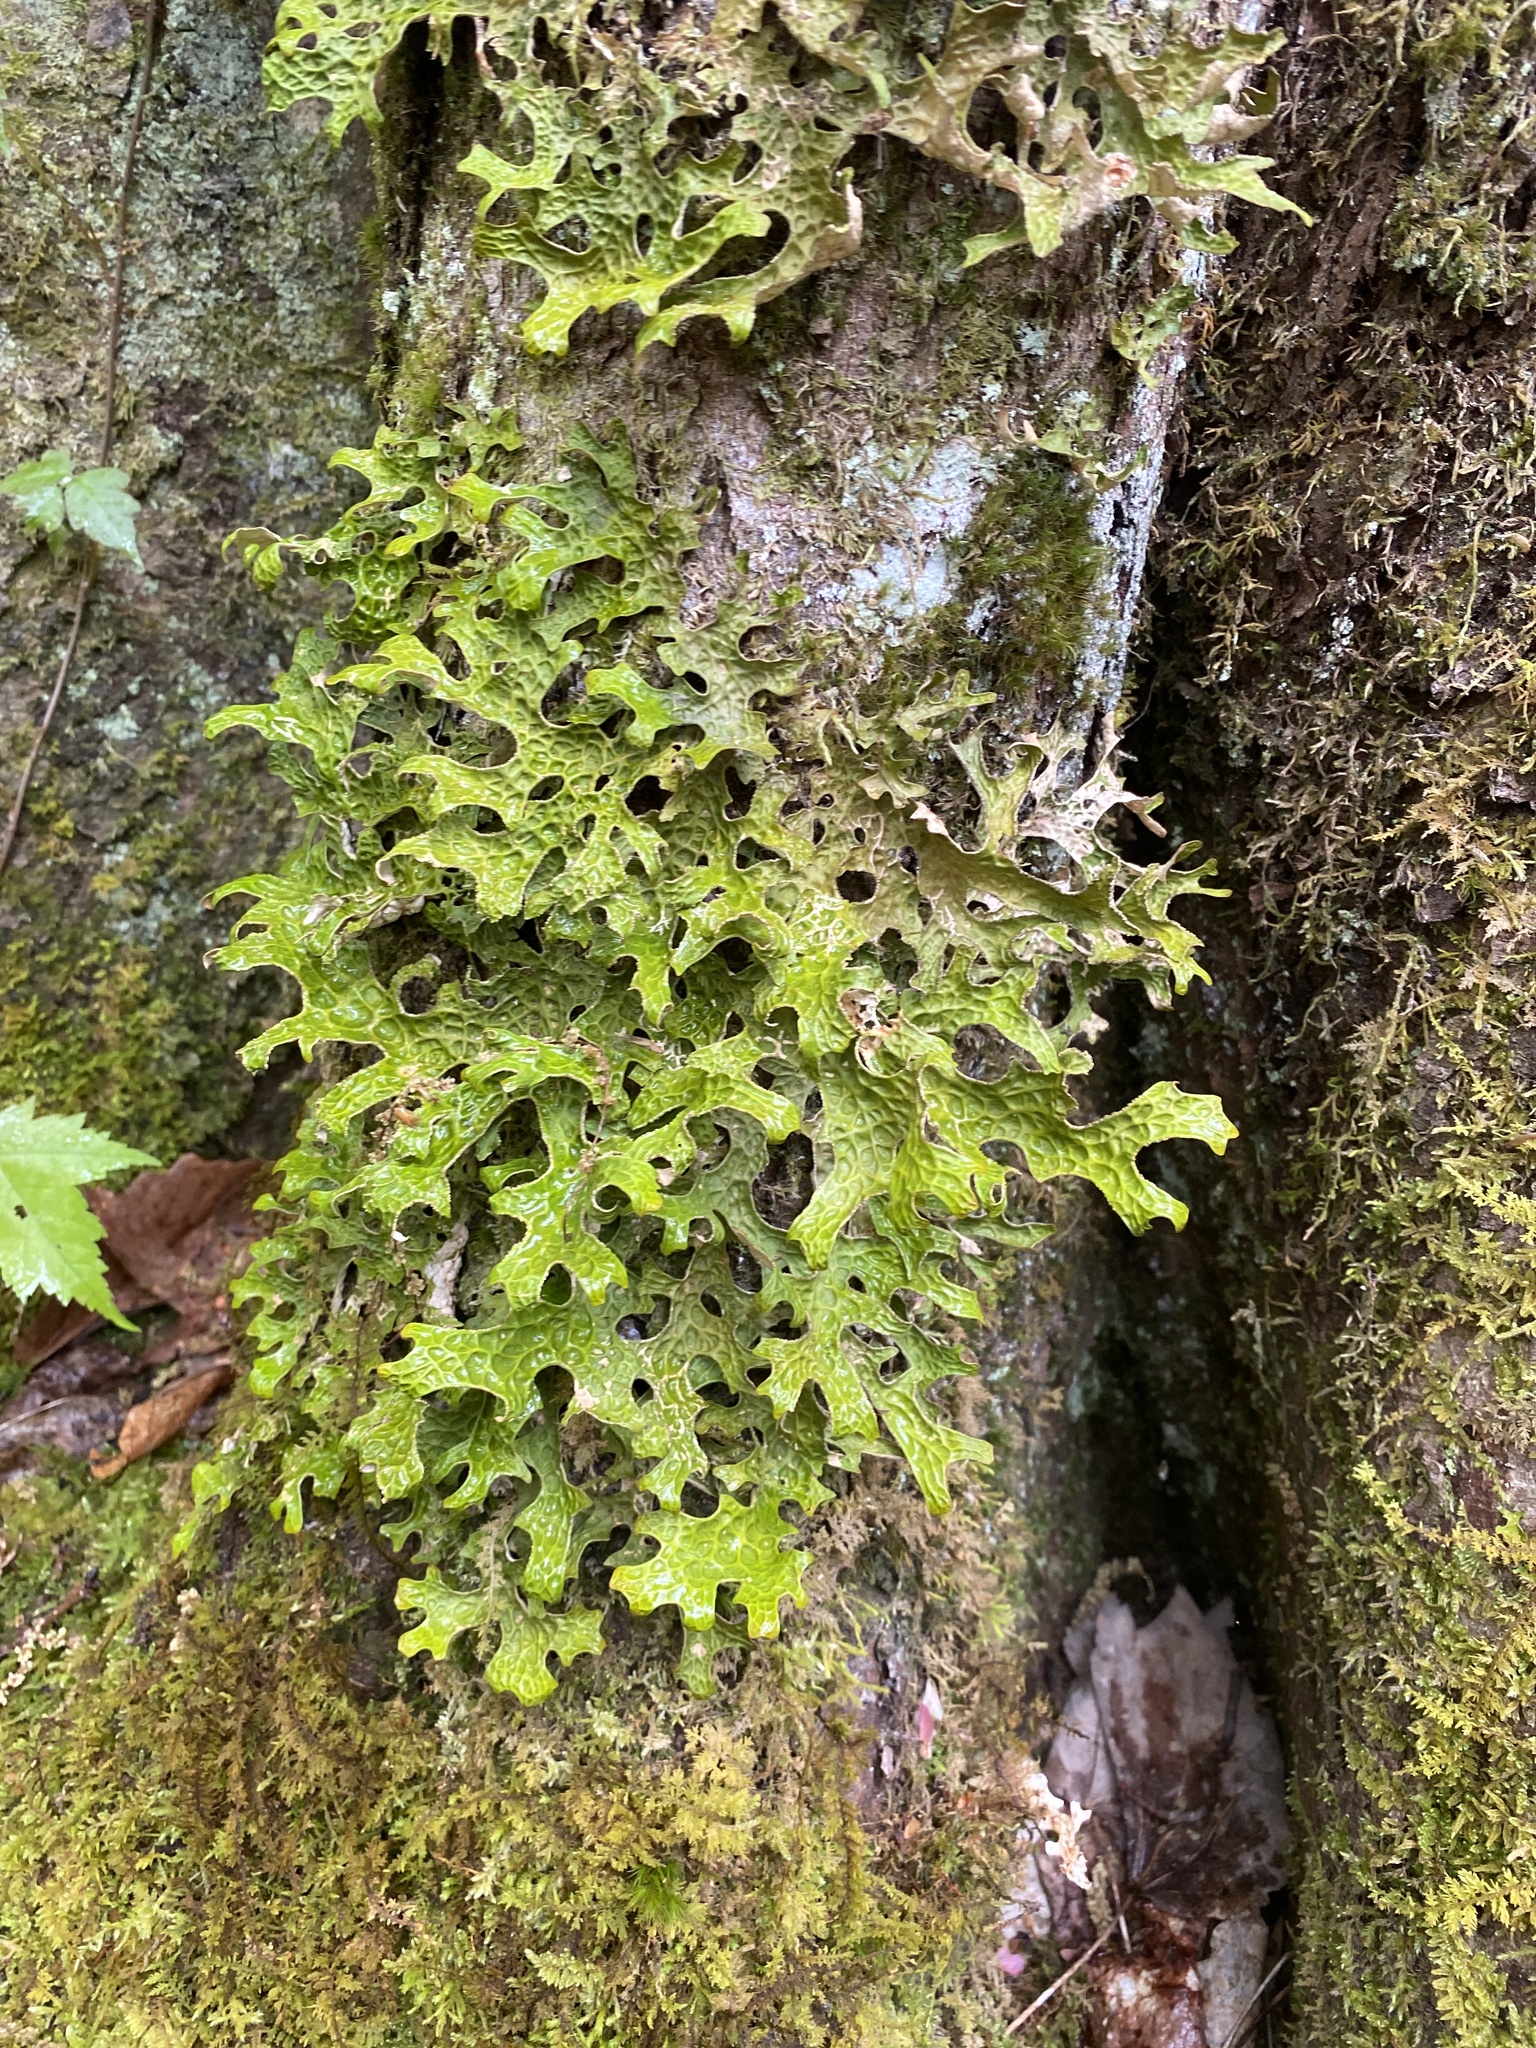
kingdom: Fungi
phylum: Ascomycota
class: Lecanoromycetes
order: Peltigerales
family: Lobariaceae
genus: Lobaria
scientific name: Lobaria pulmonaria
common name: Lungwort
